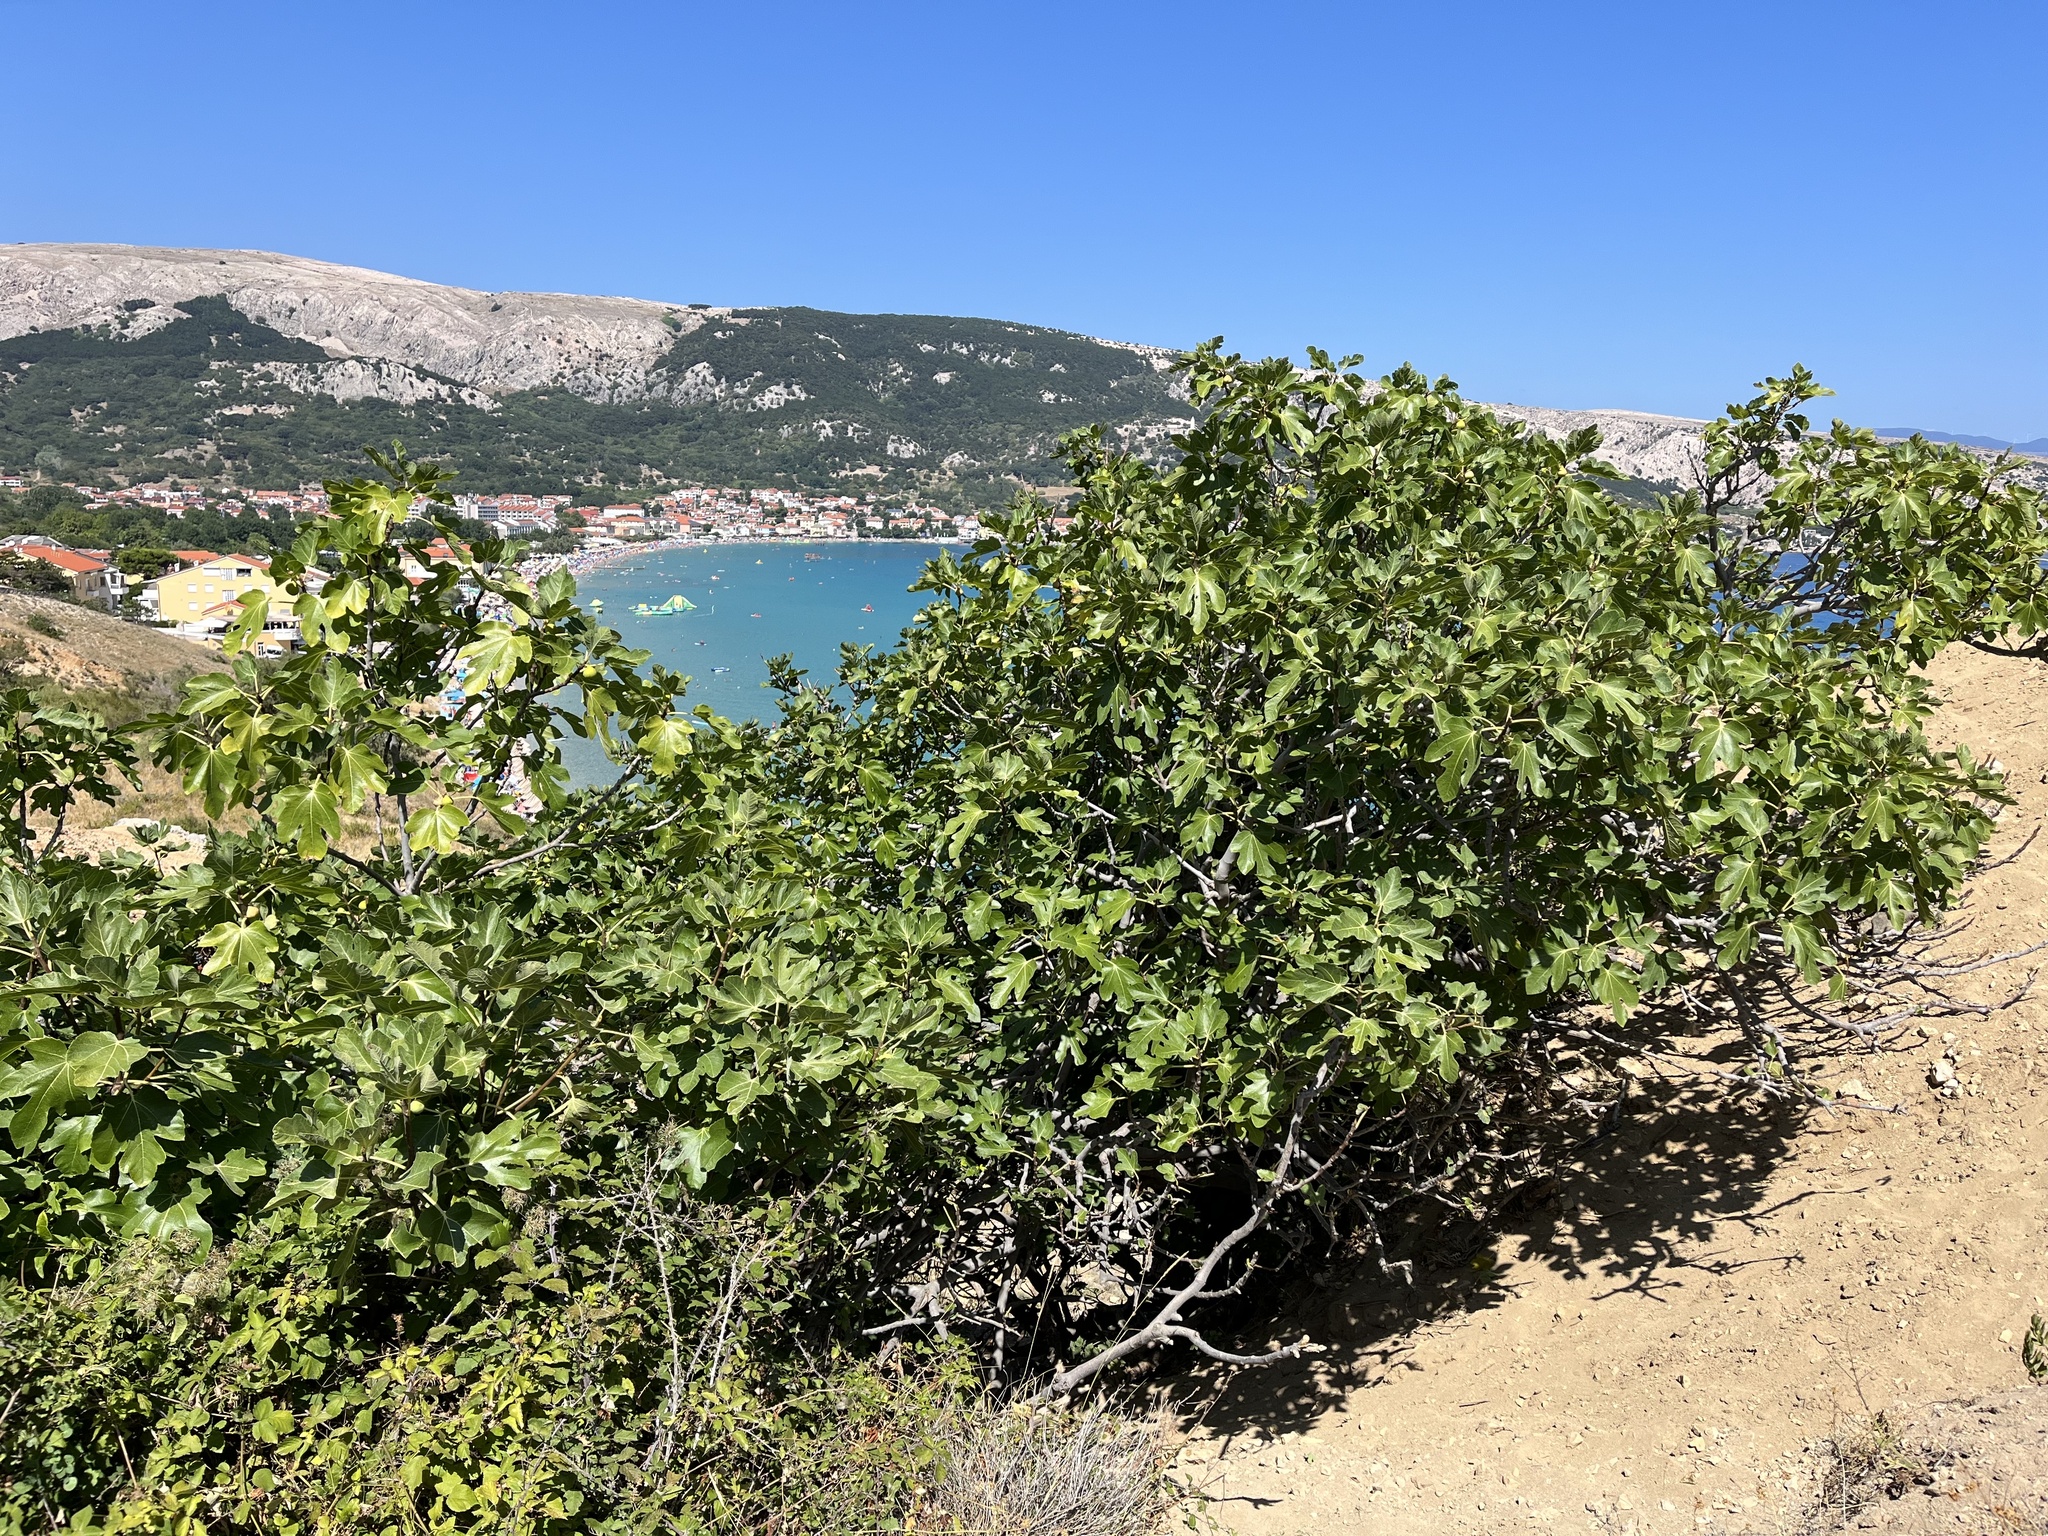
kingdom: Plantae
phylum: Tracheophyta
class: Magnoliopsida
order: Rosales
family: Moraceae
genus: Ficus
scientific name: Ficus carica
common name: Fig
